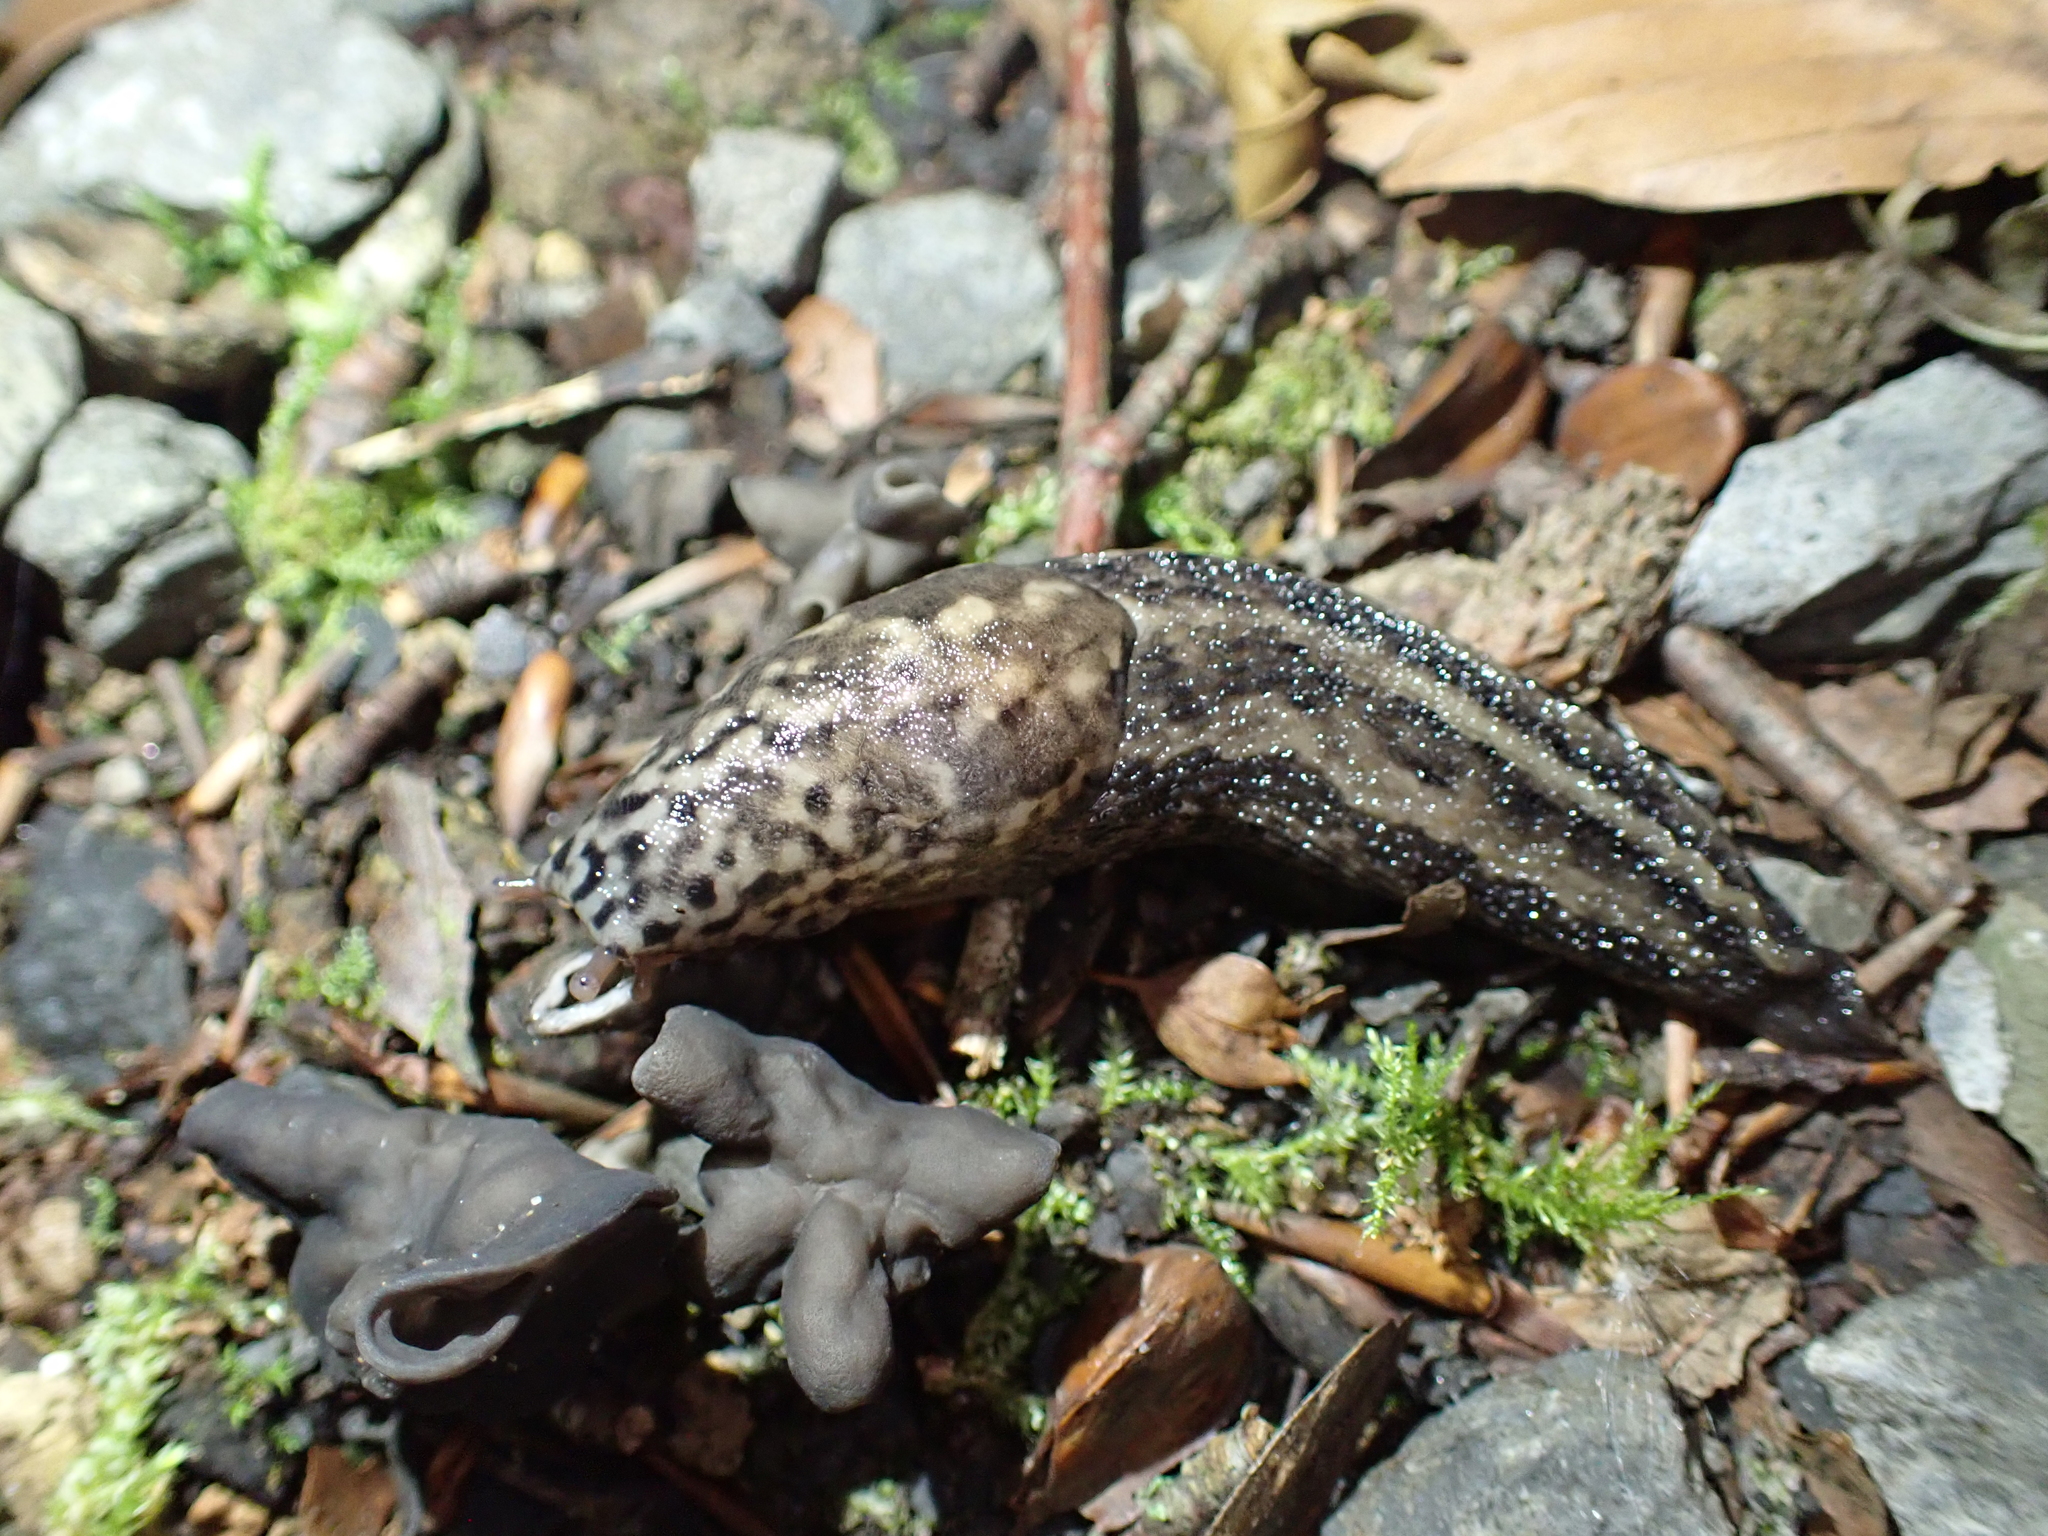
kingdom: Animalia
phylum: Mollusca
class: Gastropoda
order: Stylommatophora
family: Limacidae
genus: Limax
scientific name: Limax maximus
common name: Great grey slug
